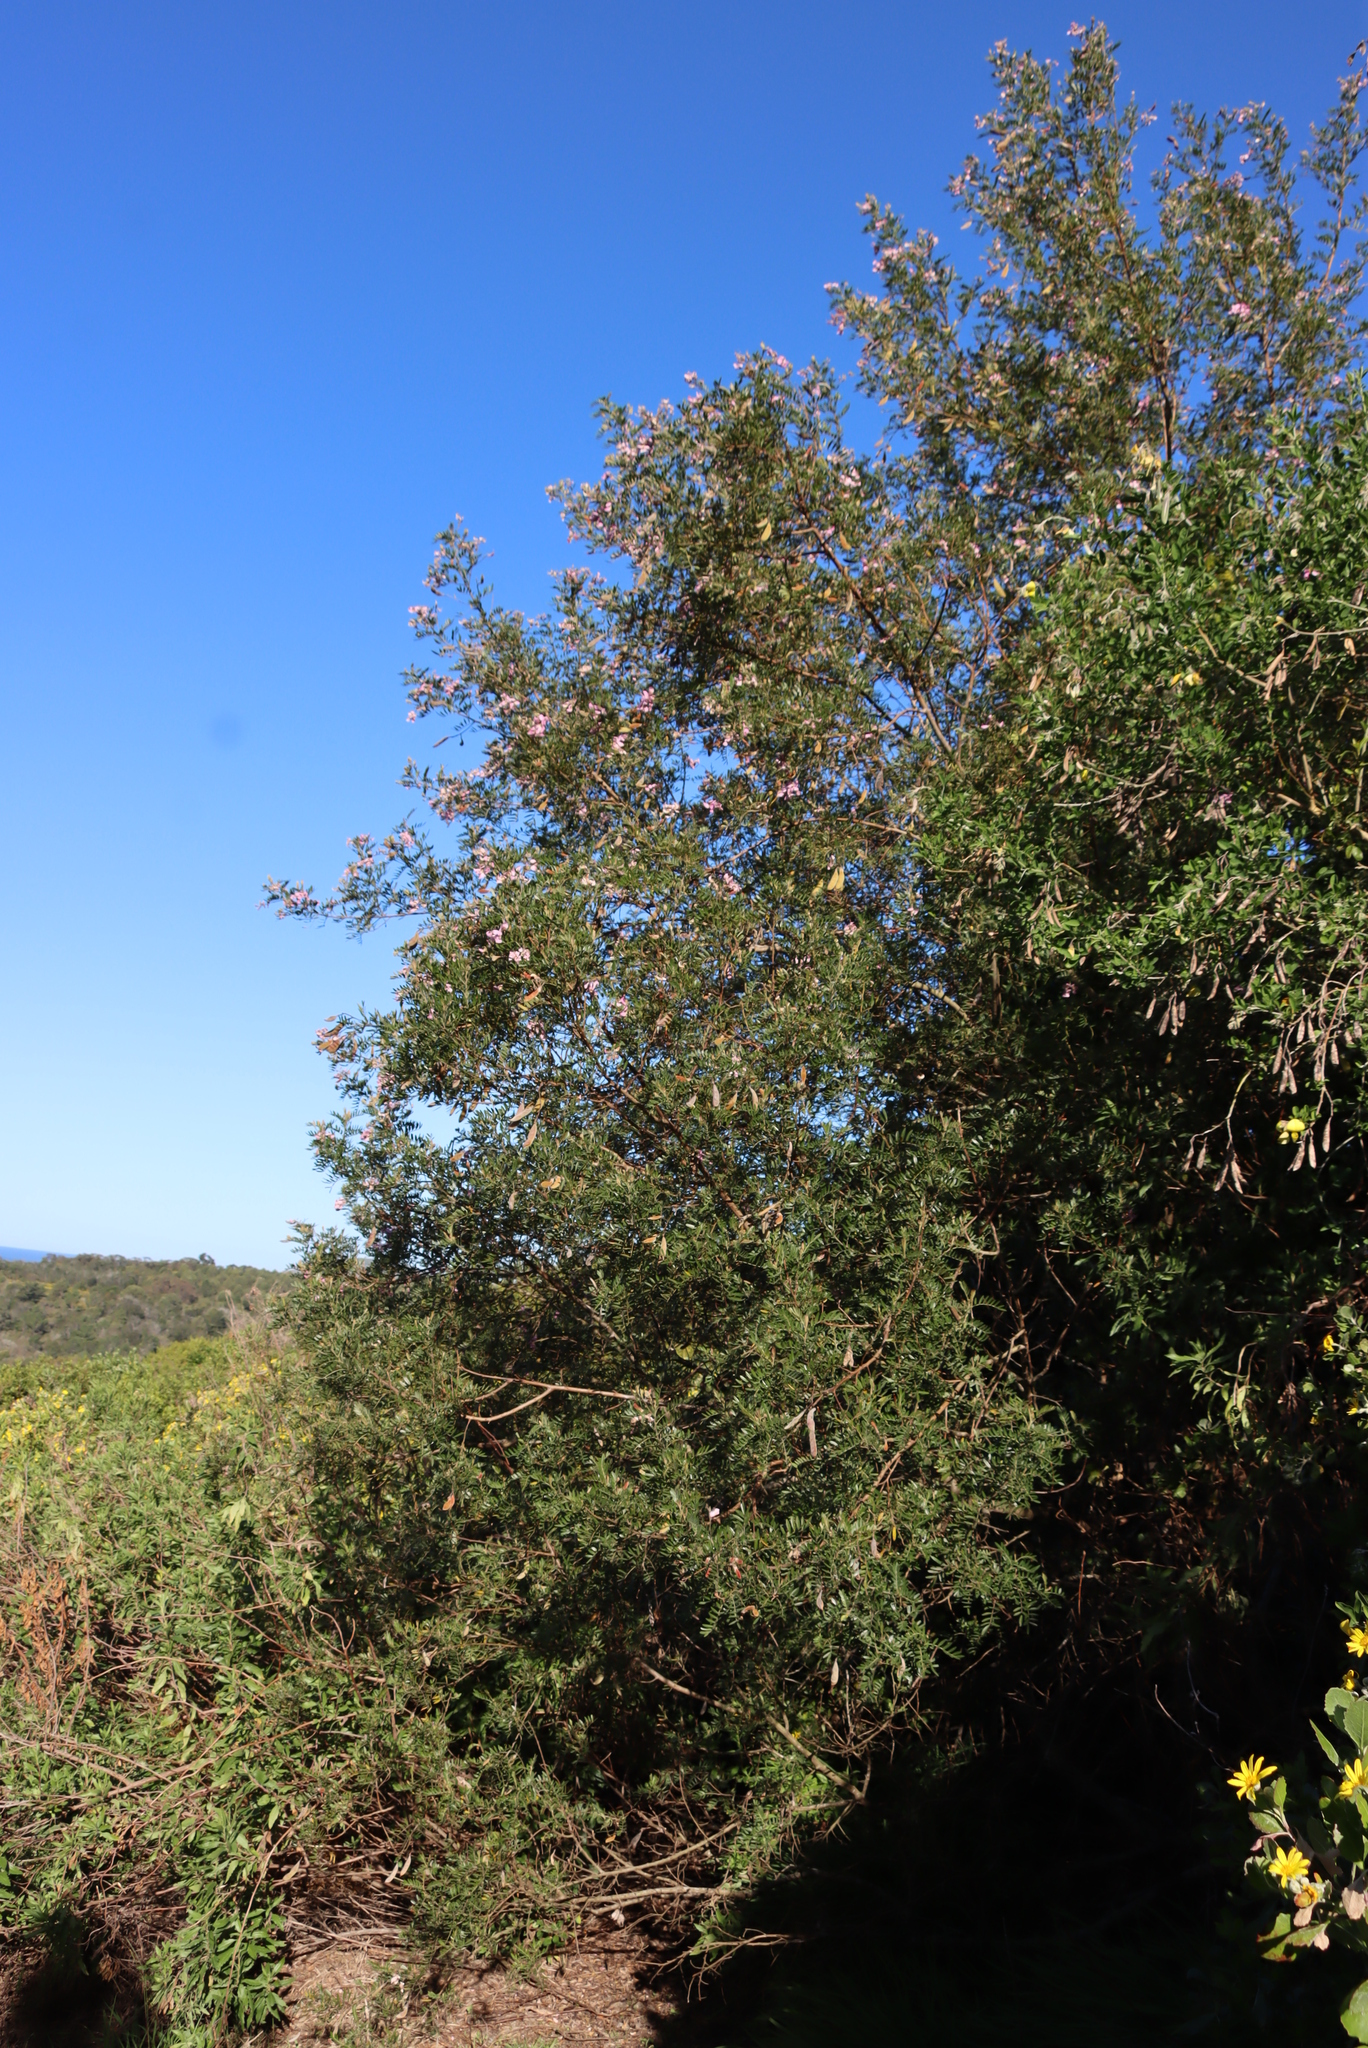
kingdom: Plantae
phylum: Tracheophyta
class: Magnoliopsida
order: Fabales
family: Fabaceae
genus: Virgilia
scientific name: Virgilia divaricata
